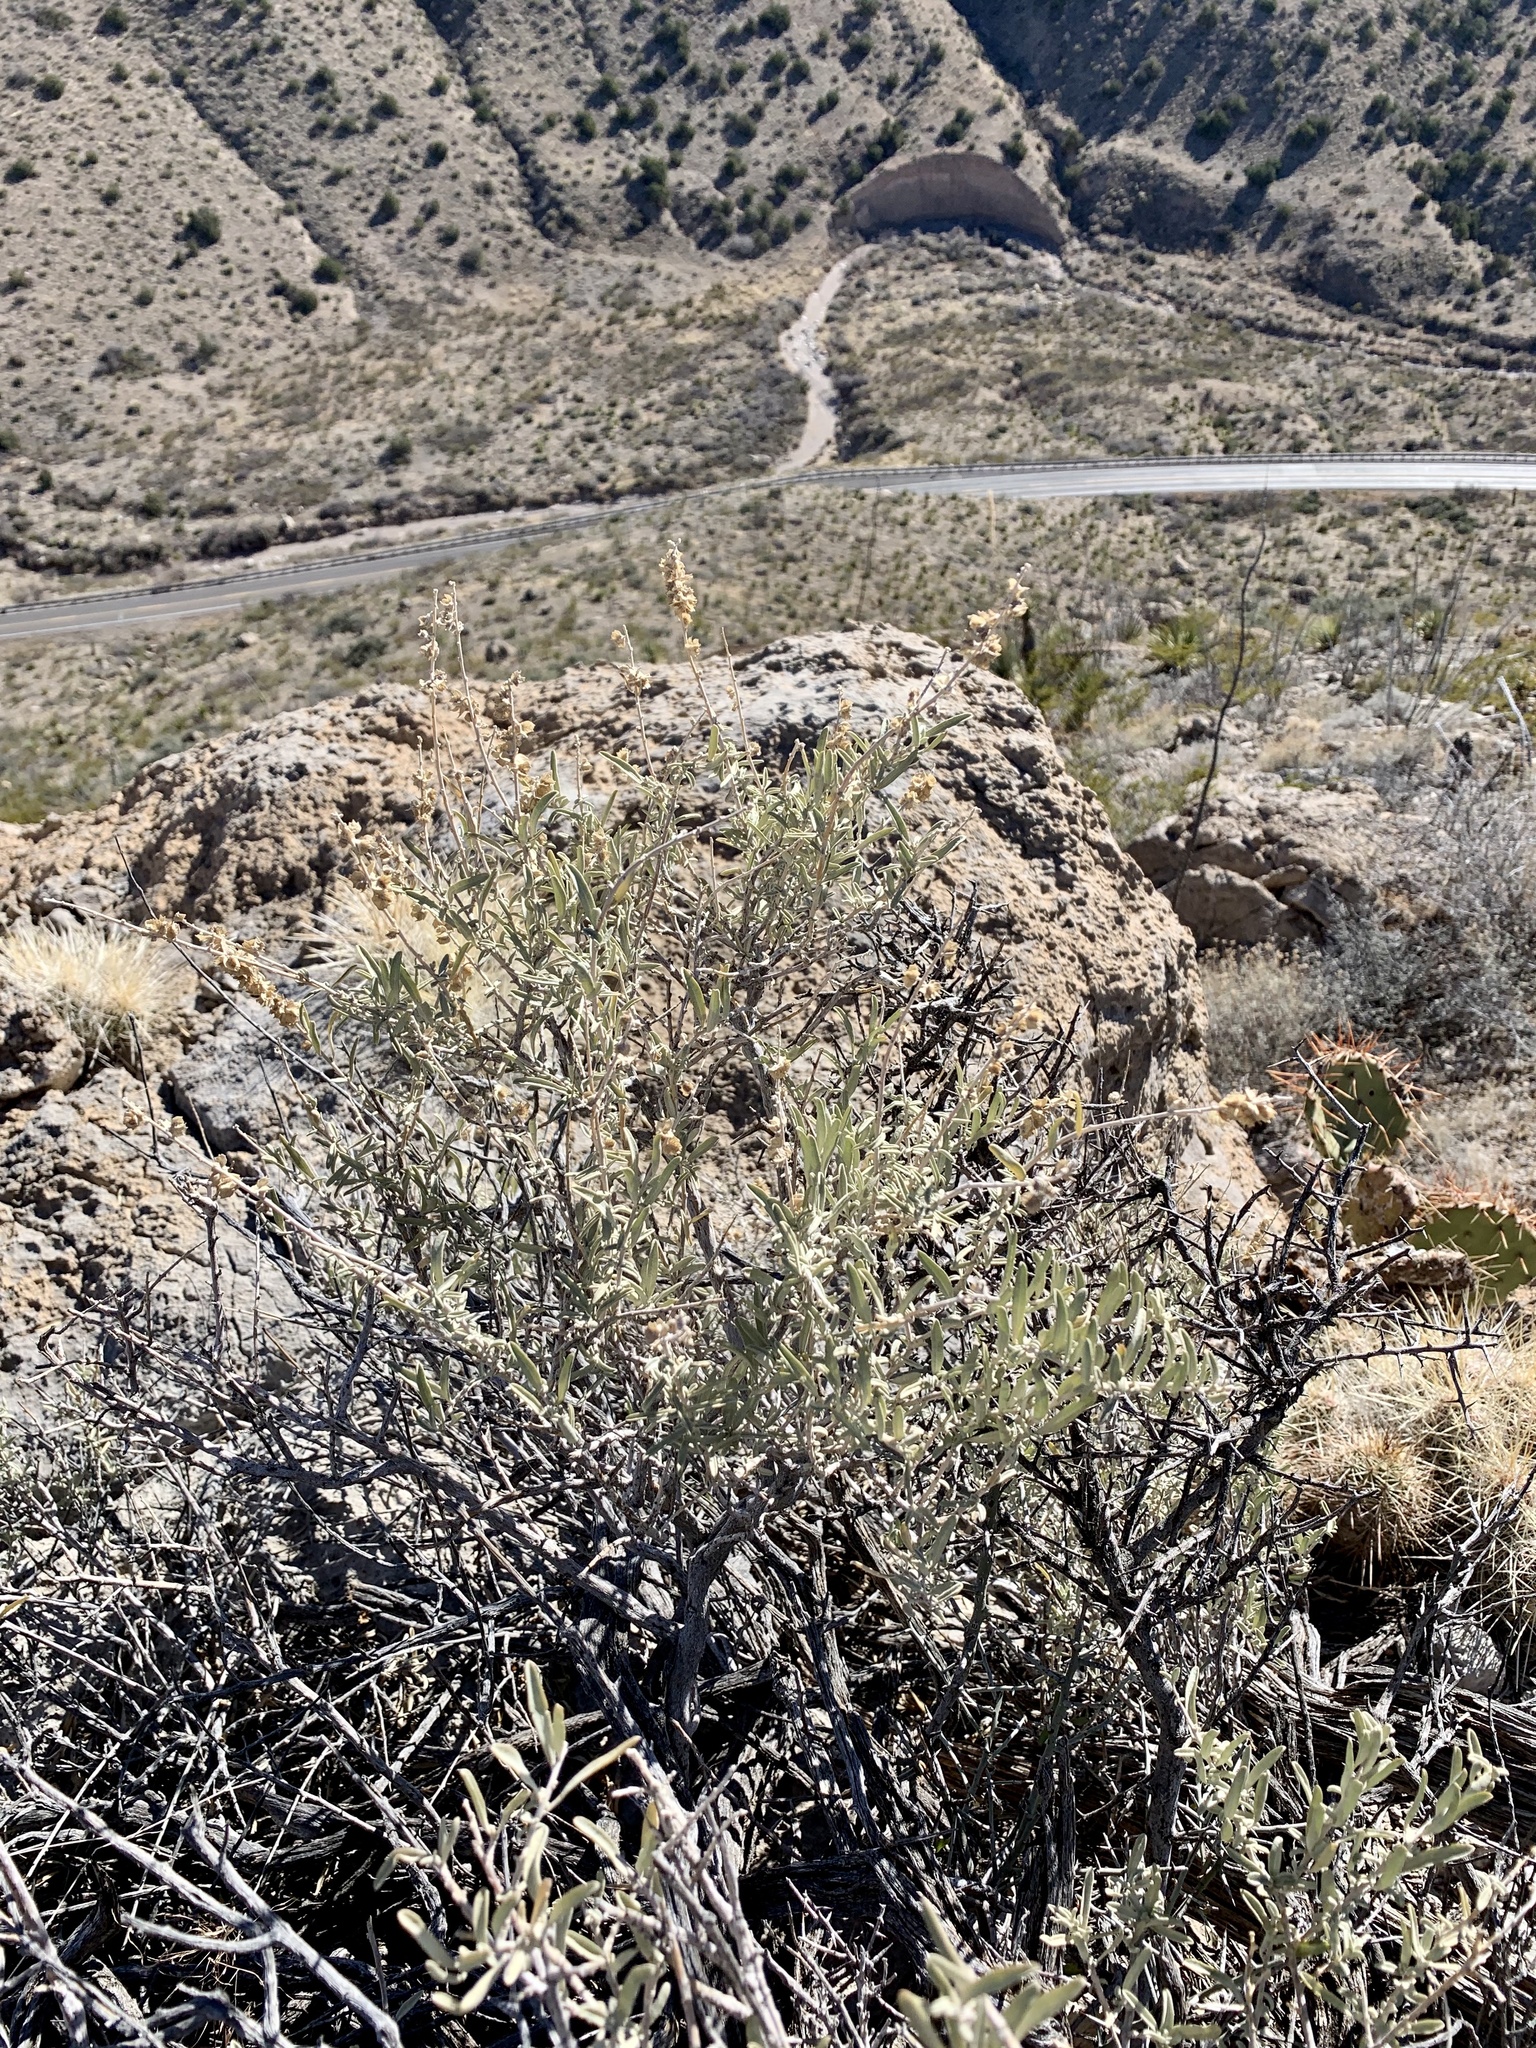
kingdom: Plantae
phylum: Tracheophyta
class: Magnoliopsida
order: Caryophyllales
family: Amaranthaceae
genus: Atriplex
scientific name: Atriplex canescens
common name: Four-wing saltbush
